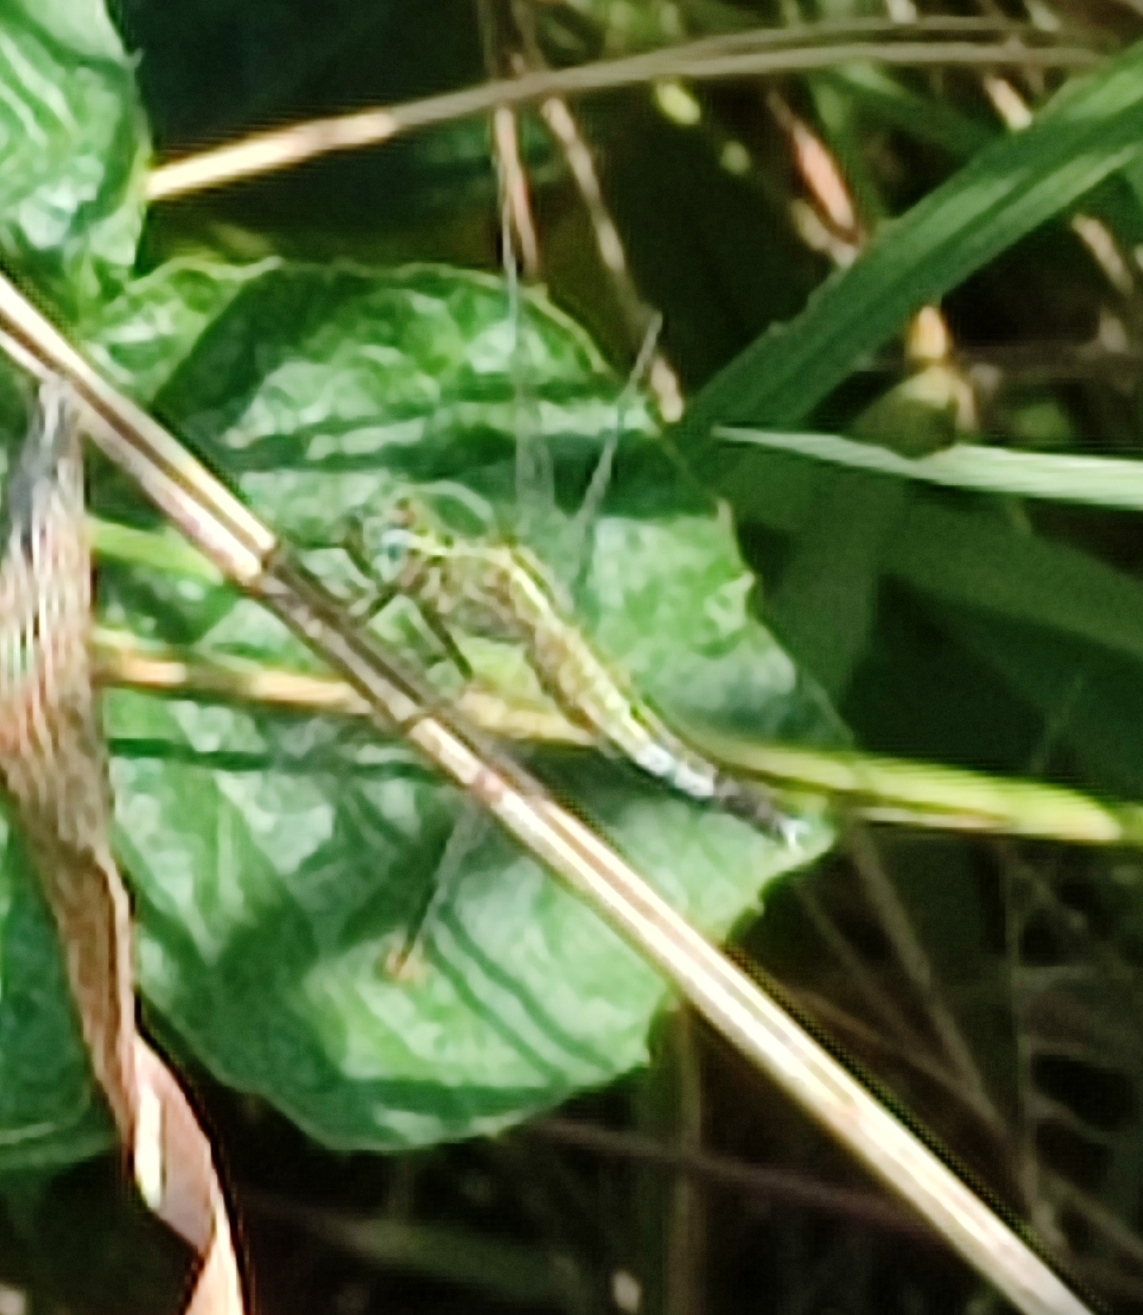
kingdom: Animalia
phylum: Arthropoda
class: Insecta
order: Odonata
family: Libellulidae
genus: Acisoma
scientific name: Acisoma panorpoides
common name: Asian pintail
